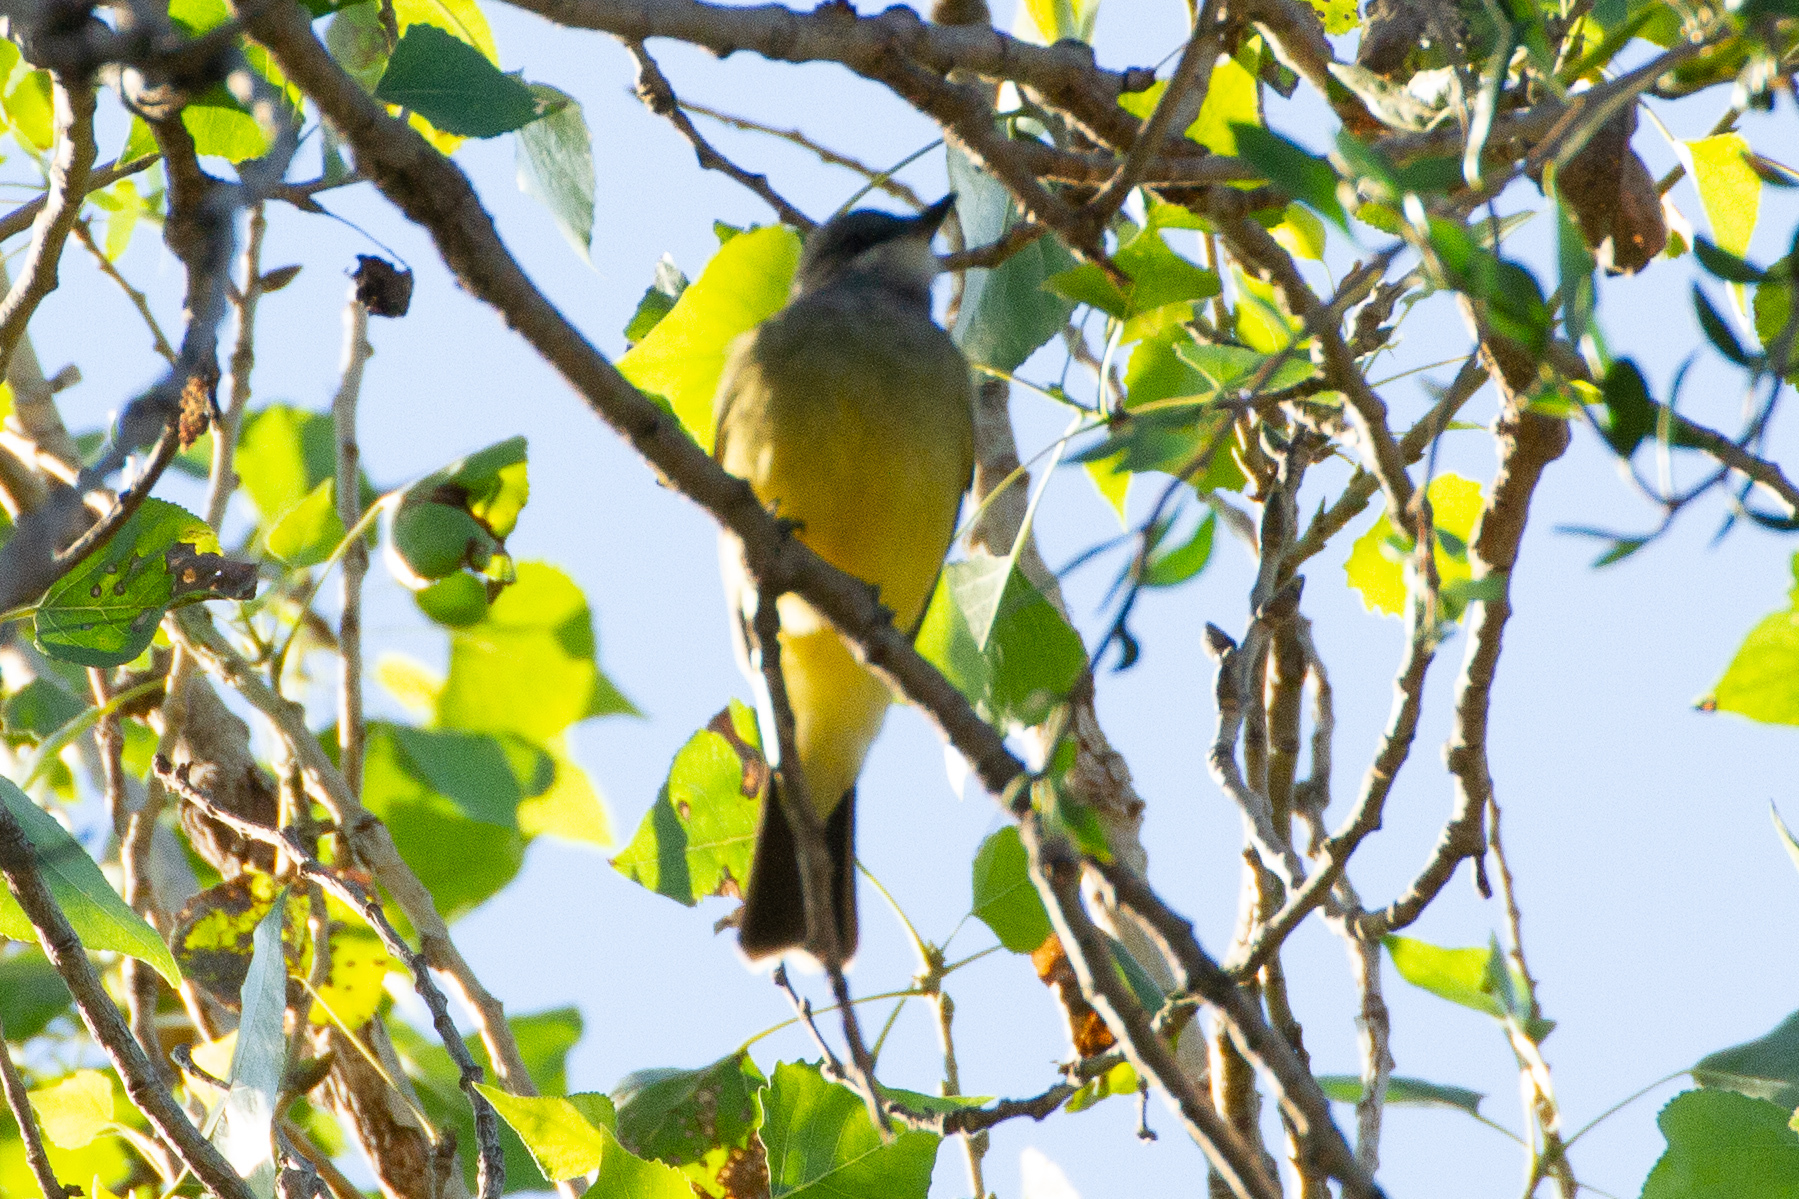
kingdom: Animalia
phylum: Chordata
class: Aves
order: Passeriformes
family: Ptilogonatidae
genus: Ptilogonys
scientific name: Ptilogonys cinereus
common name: Gray silky-flycatcher
